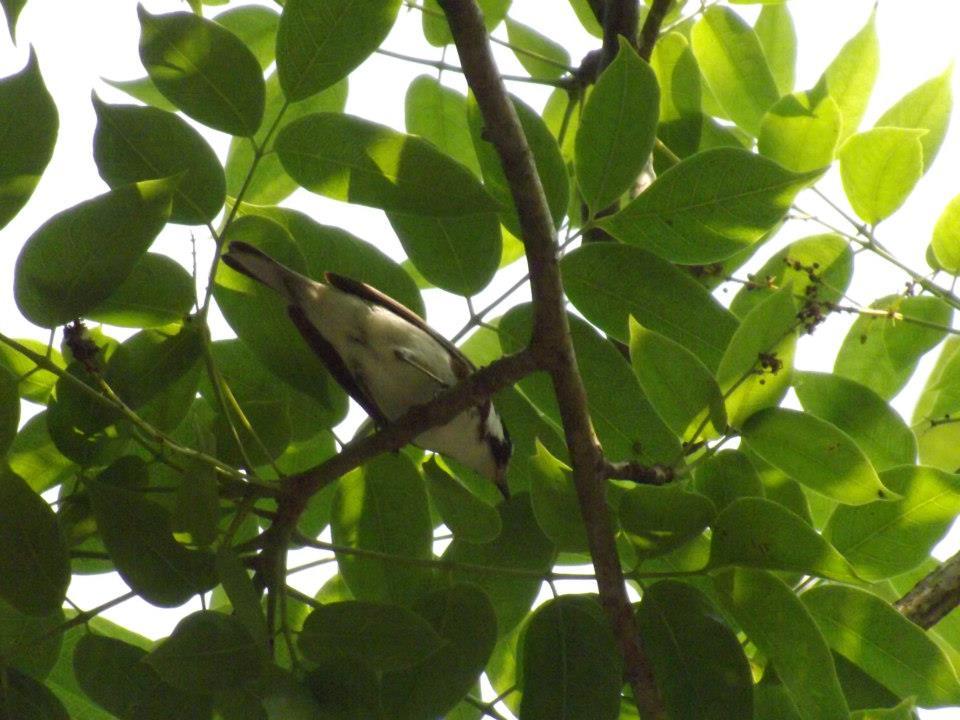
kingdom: Animalia
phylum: Chordata
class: Aves
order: Passeriformes
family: Parulidae
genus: Setophaga
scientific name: Setophaga pensylvanica
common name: Chestnut-sided warbler
